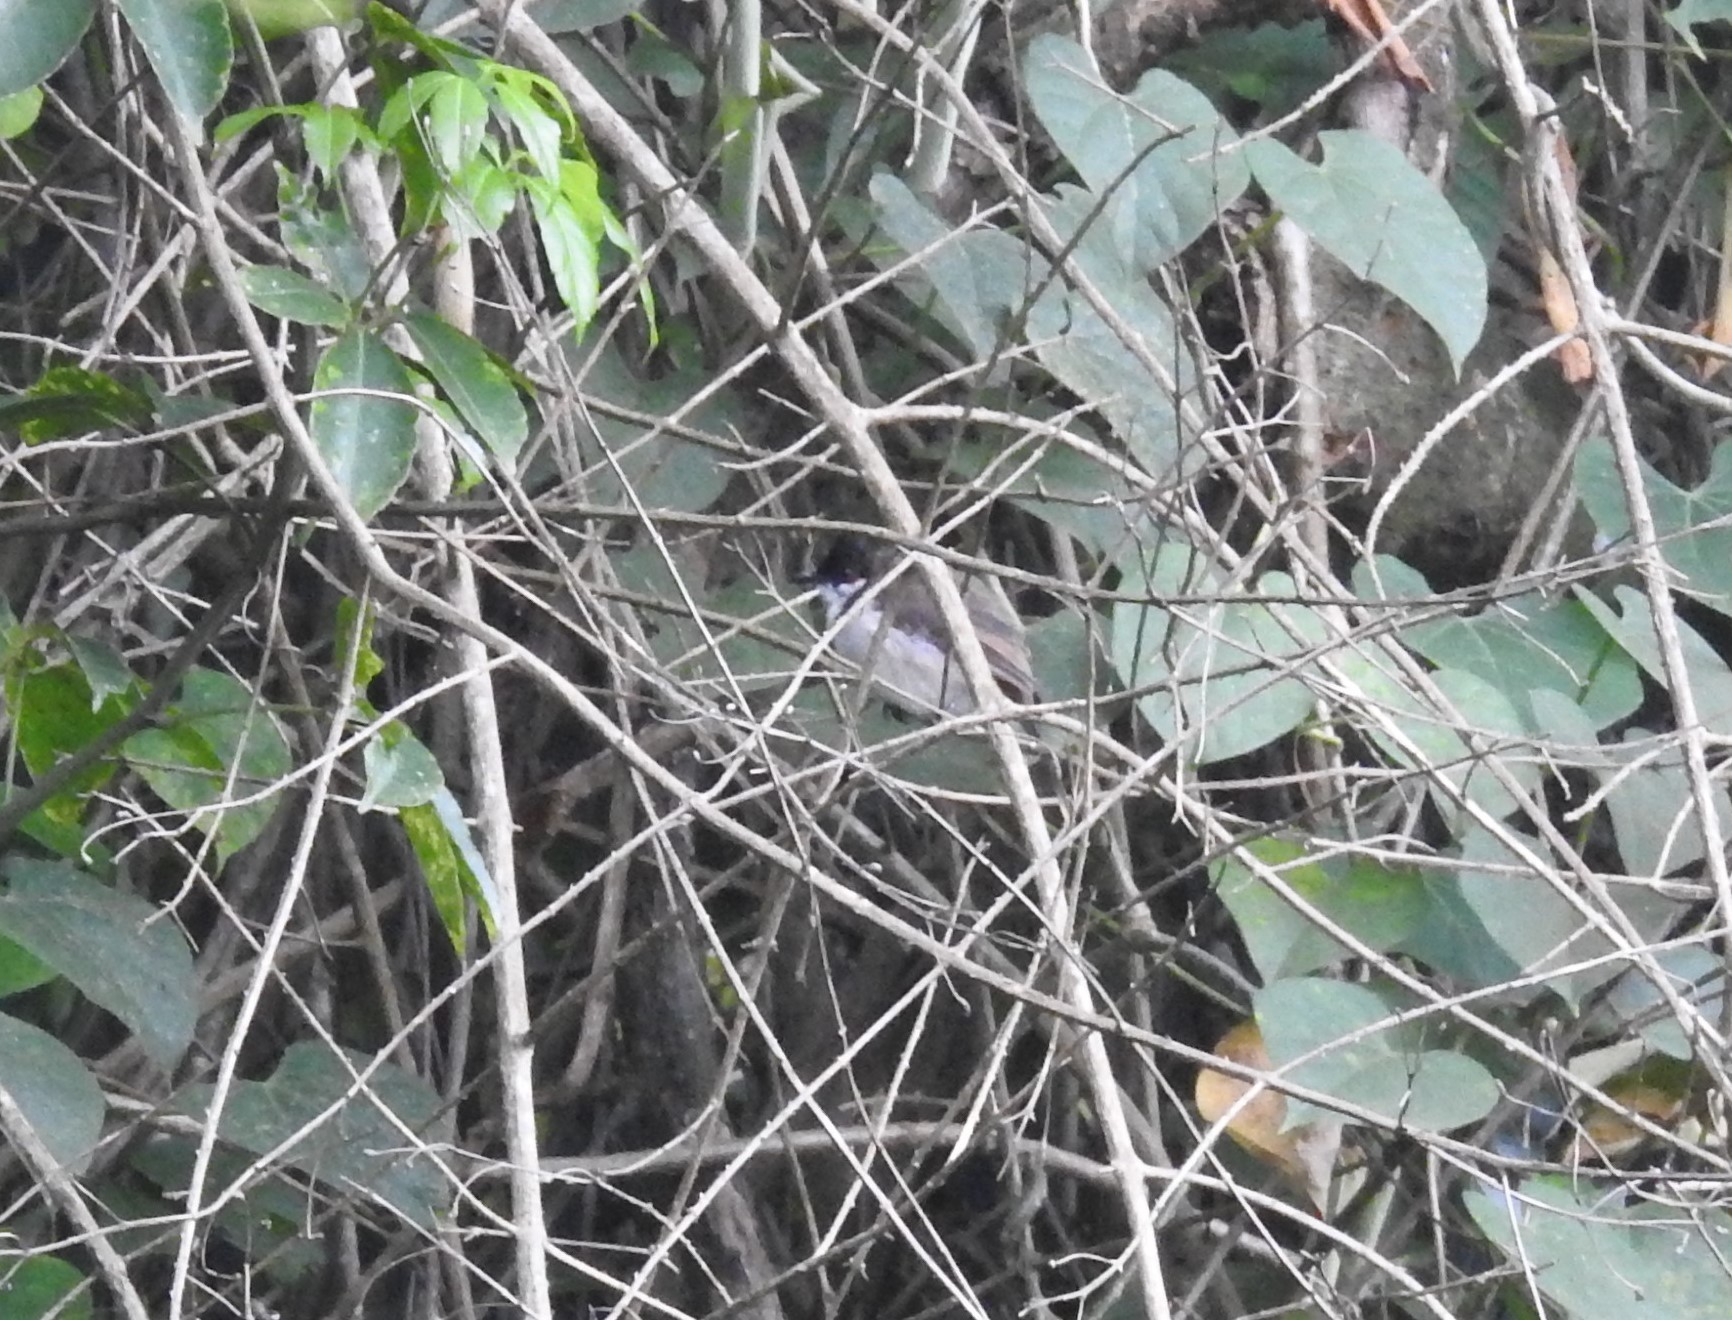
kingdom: Animalia
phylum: Chordata
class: Aves
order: Passeriformes
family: Pycnonotidae
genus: Pycnonotus
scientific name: Pycnonotus jocosus
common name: Red-whiskered bulbul
